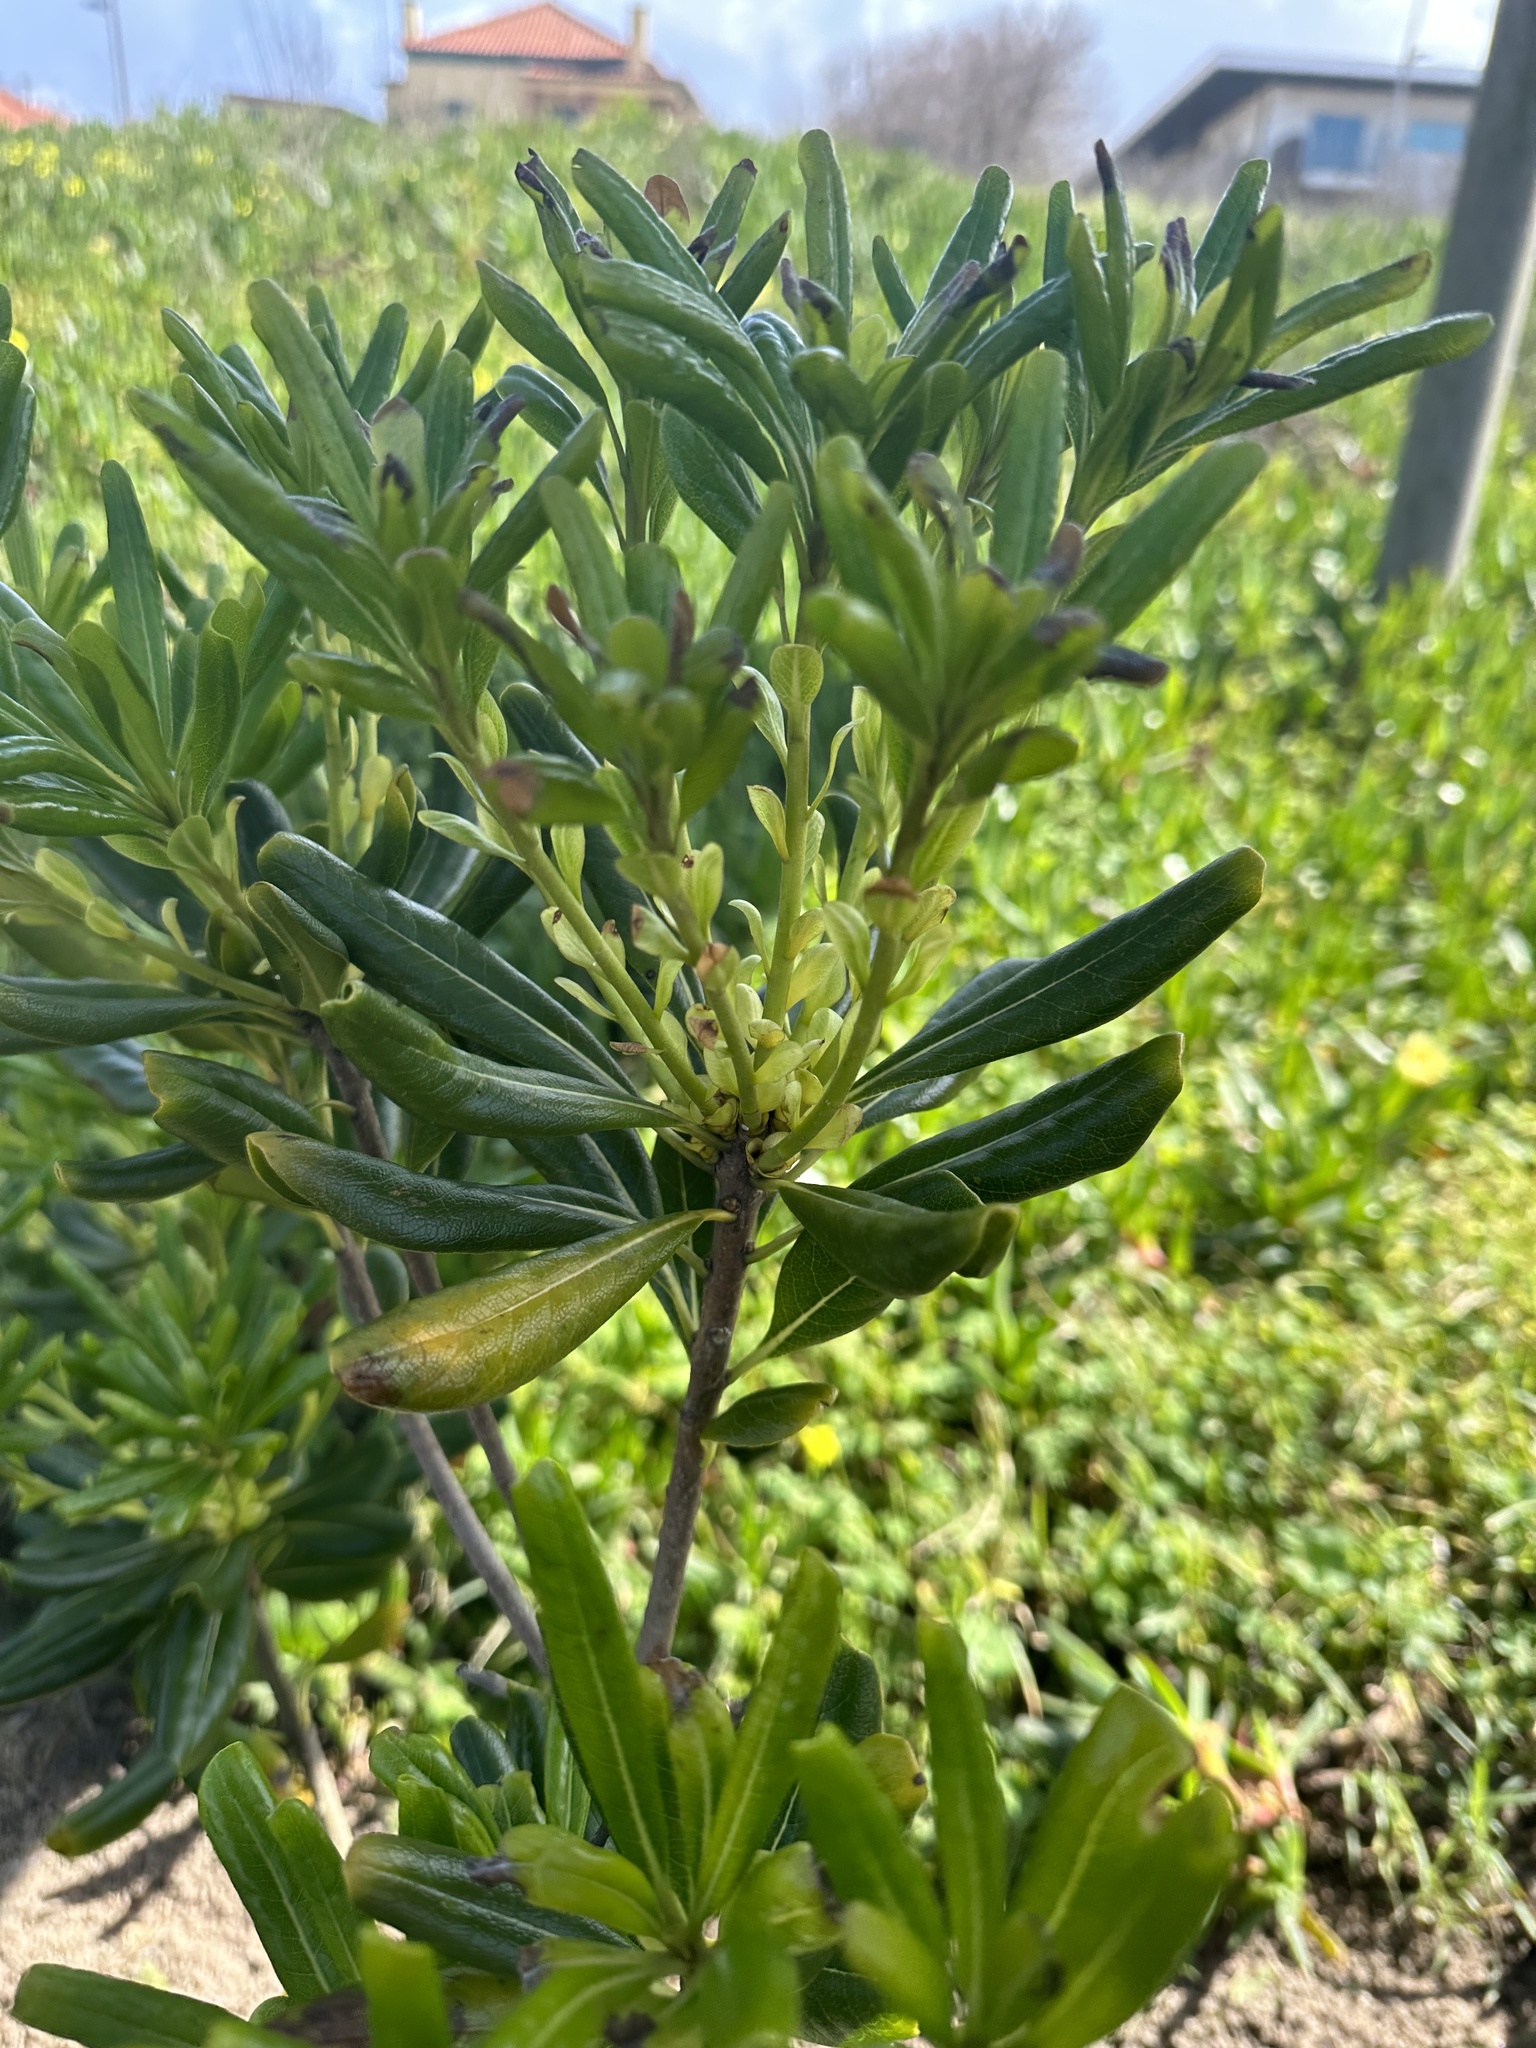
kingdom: Plantae
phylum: Tracheophyta
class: Magnoliopsida
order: Apiales
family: Pittosporaceae
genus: Pittosporum
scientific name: Pittosporum tobira
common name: Japanese cheesewood
